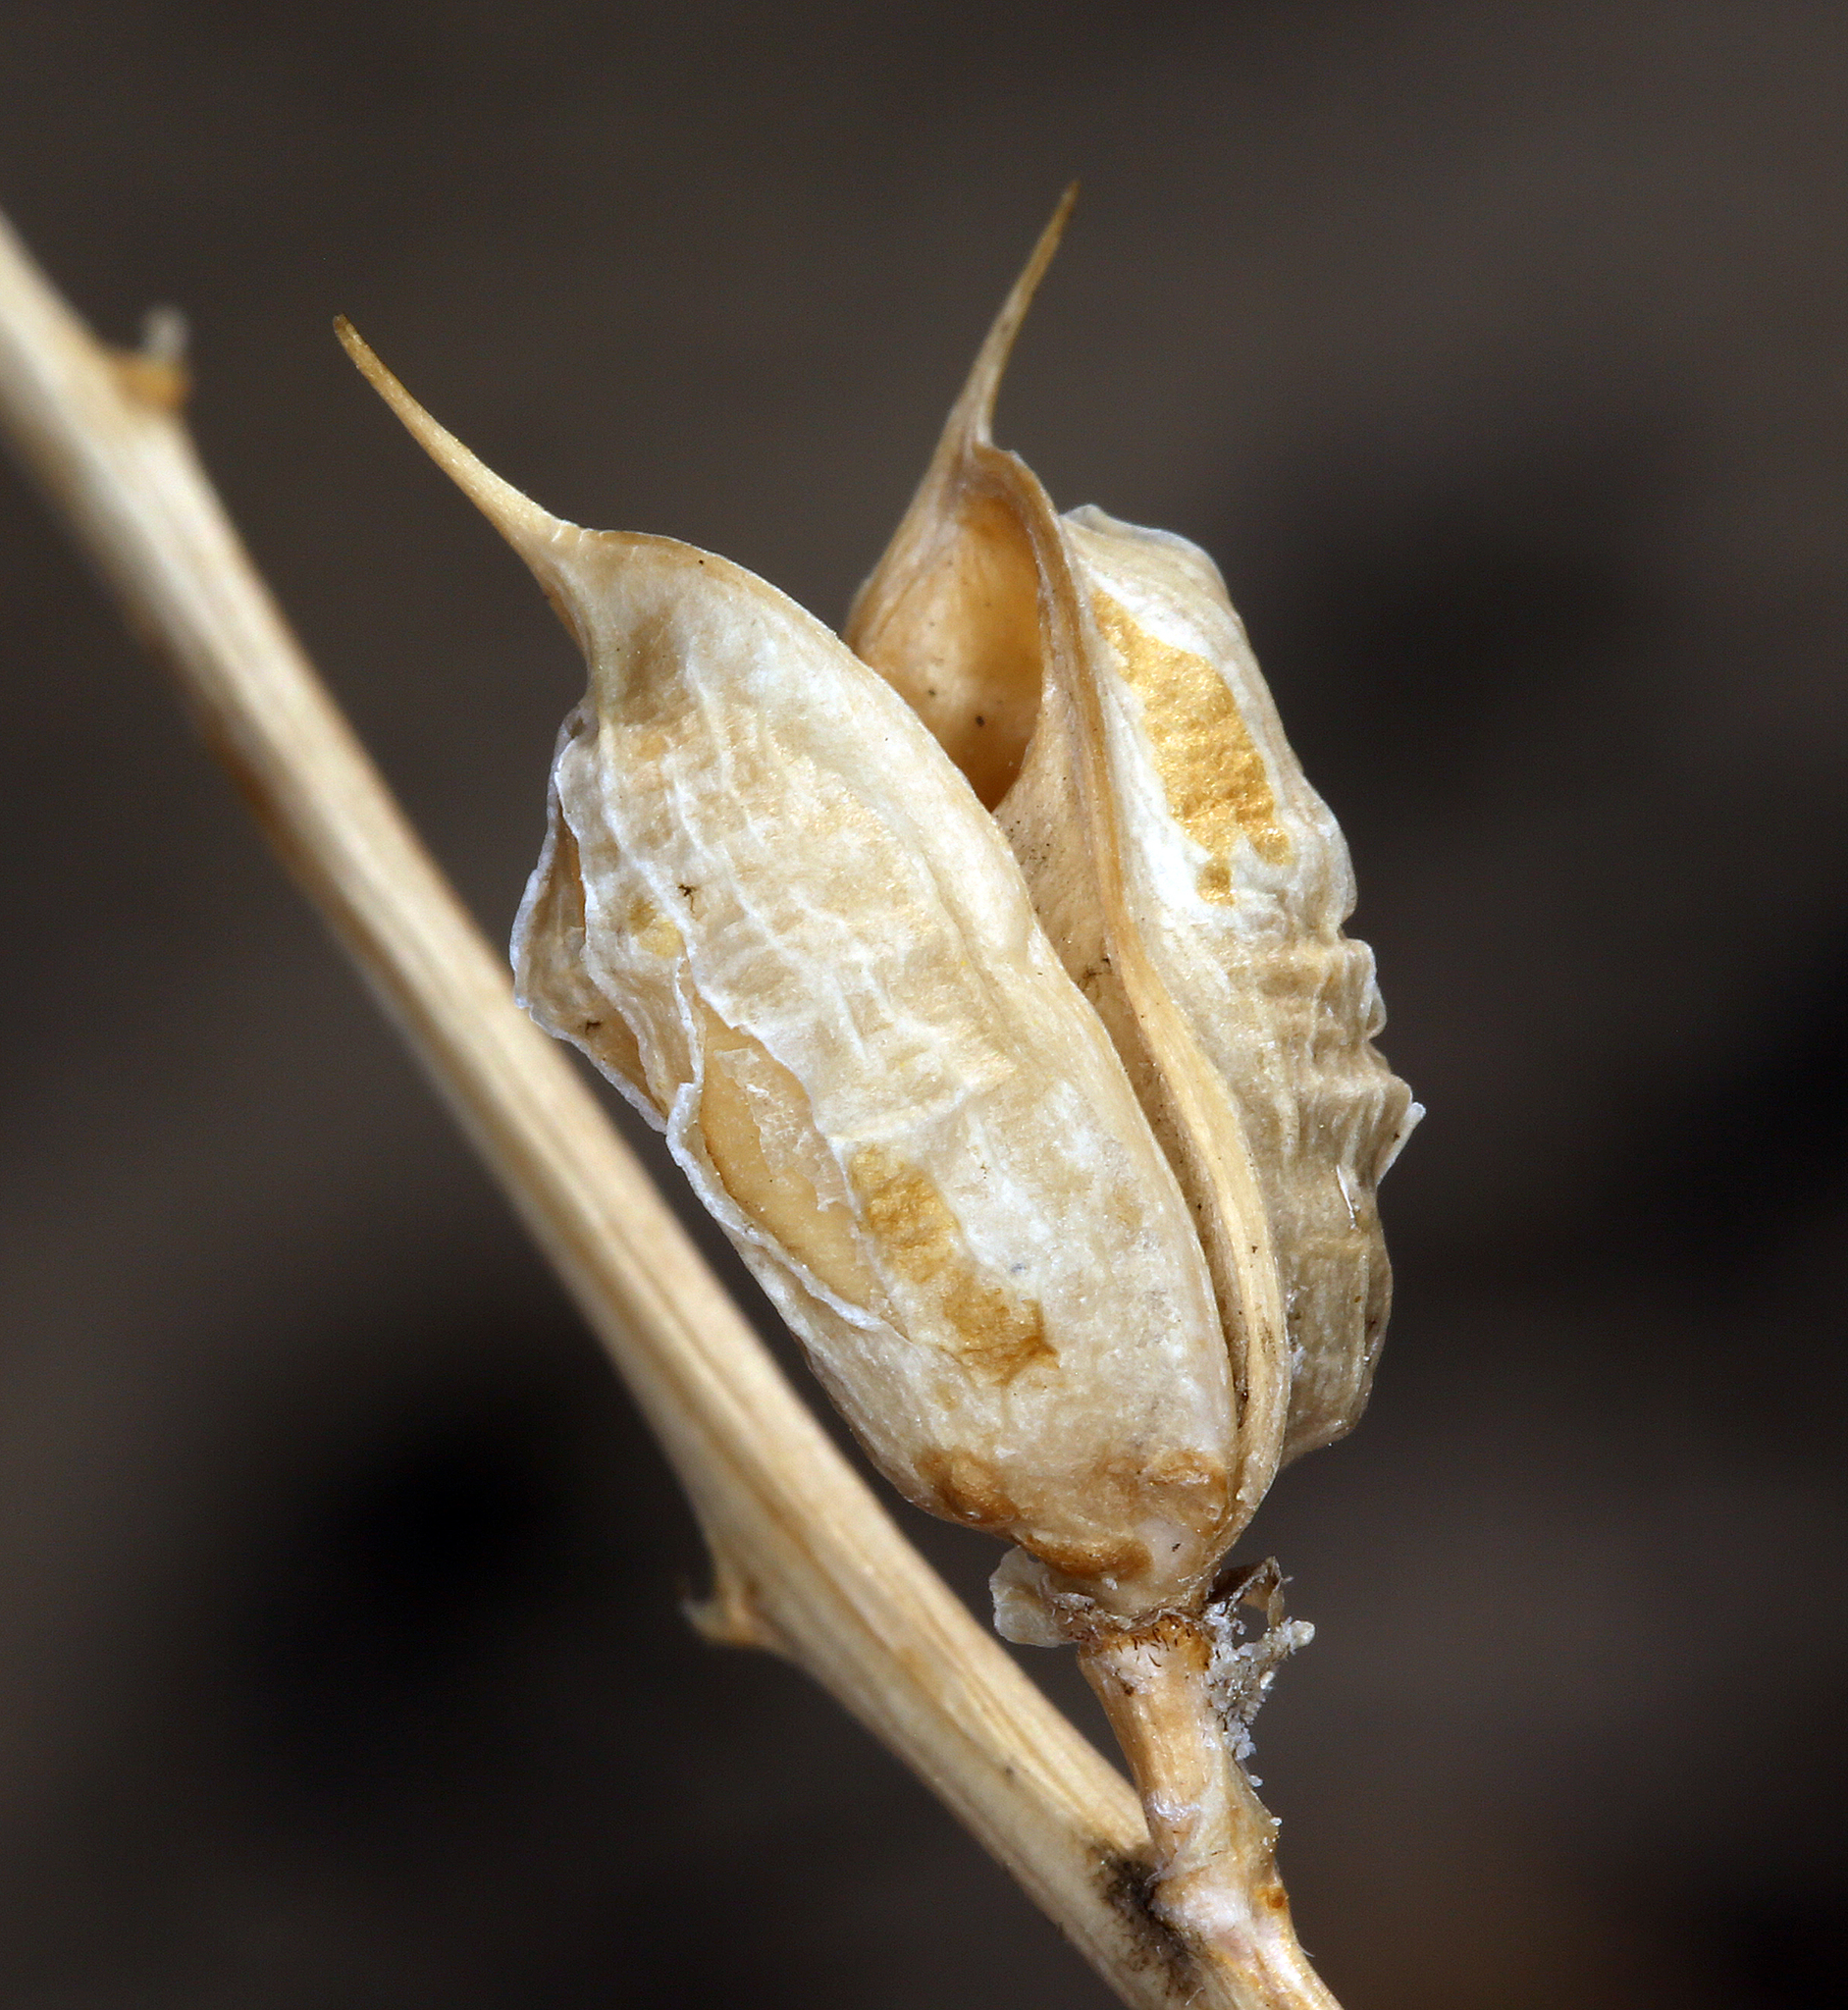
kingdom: Plantae
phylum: Tracheophyta
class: Magnoliopsida
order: Fabales
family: Fabaceae
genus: Astragalus
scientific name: Astragalus serenoi
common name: Naked milk-vetch
